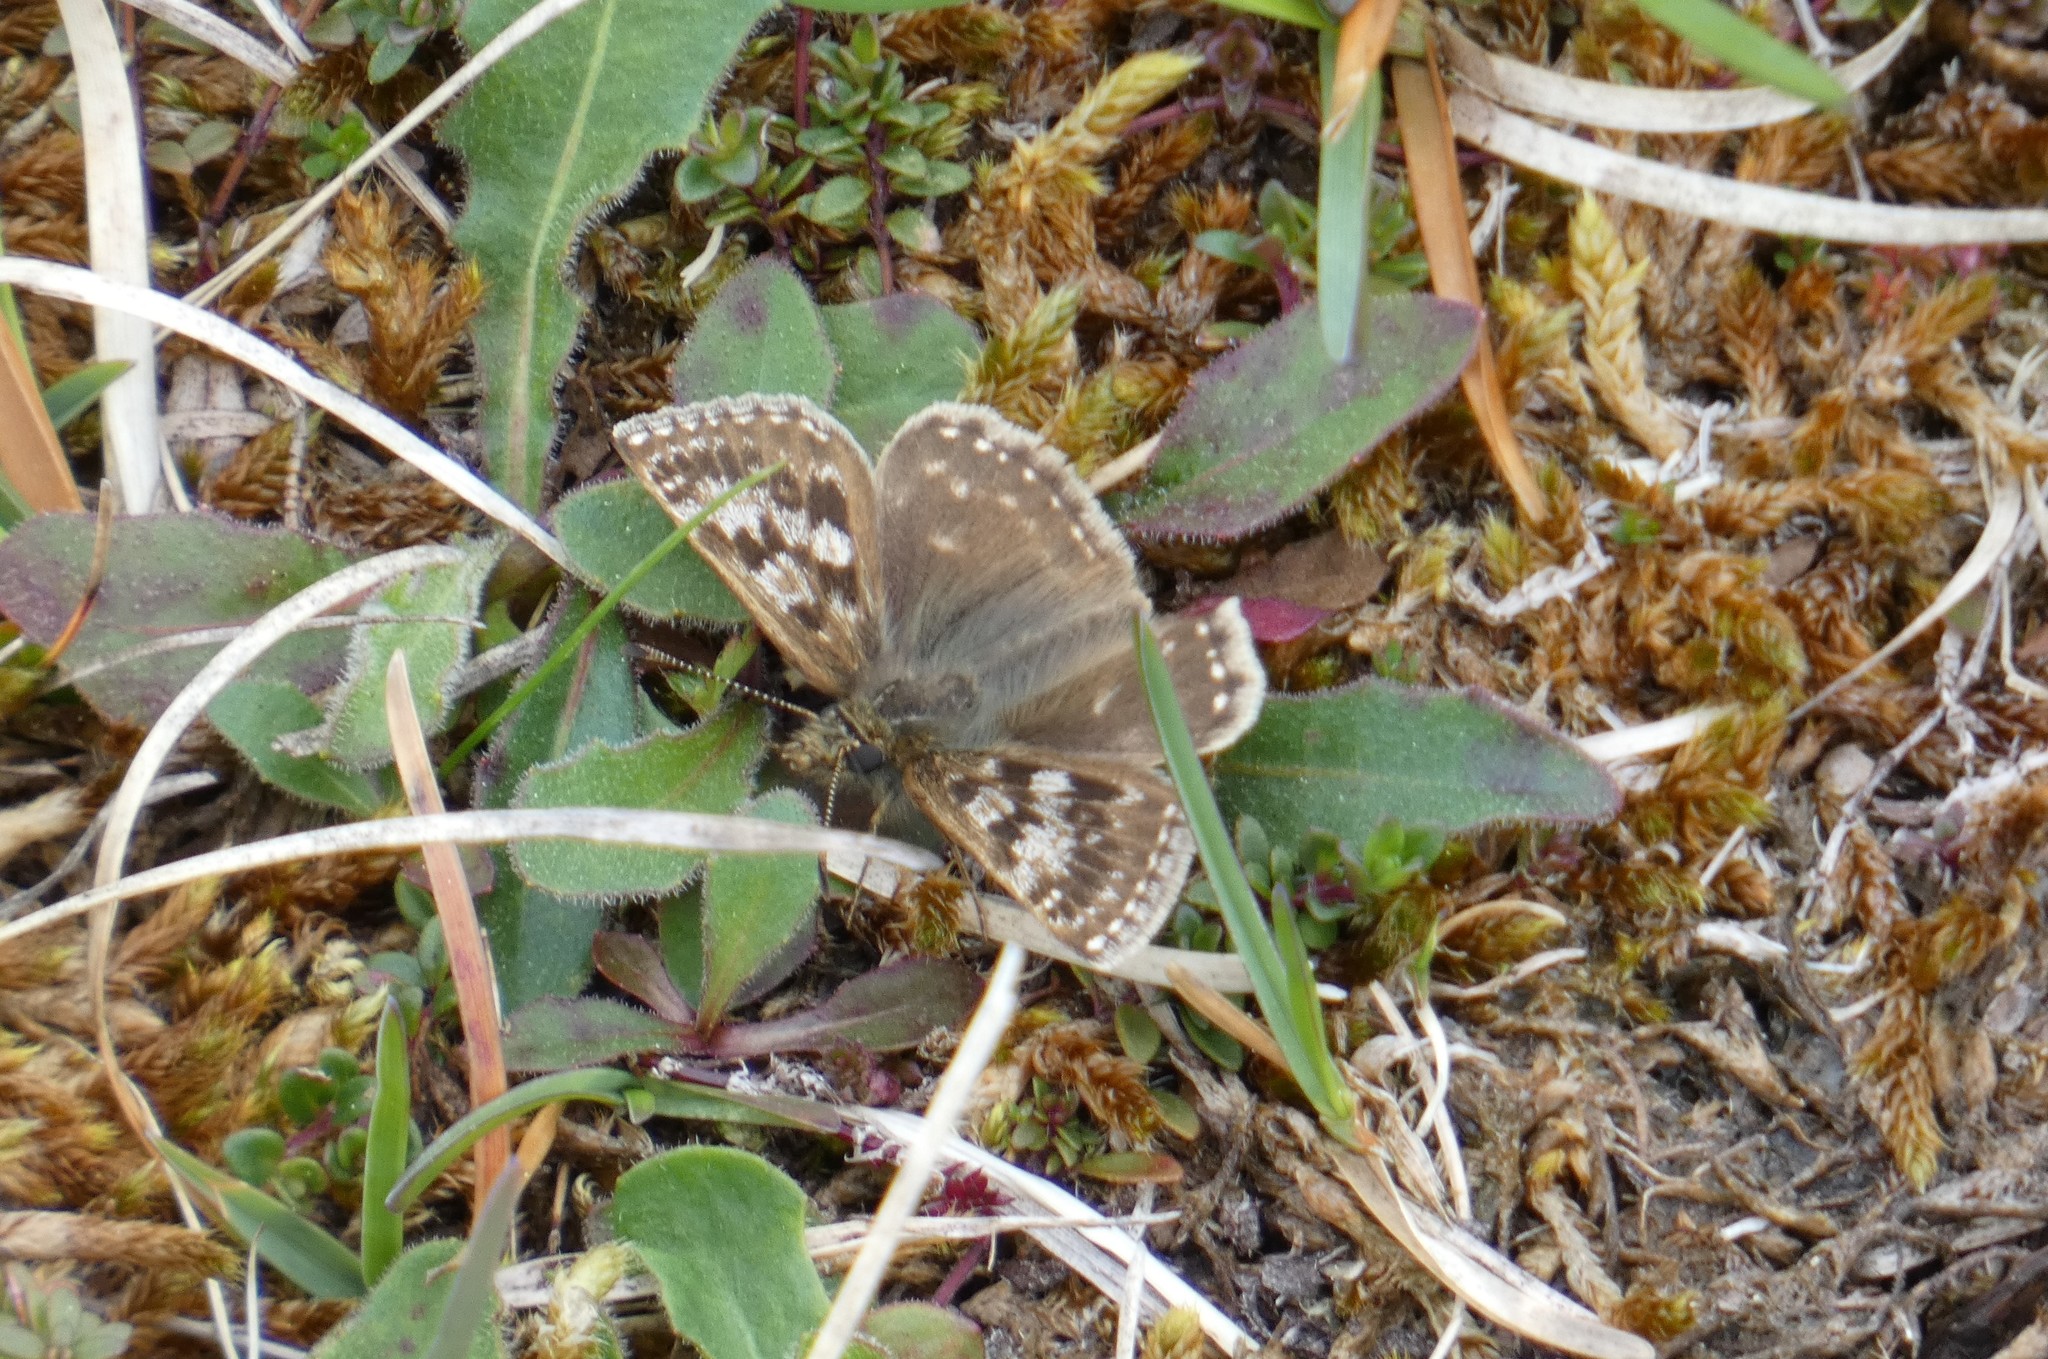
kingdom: Animalia
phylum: Arthropoda
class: Insecta
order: Lepidoptera
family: Hesperiidae
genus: Erynnis
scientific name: Erynnis tages
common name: Dingy skipper
